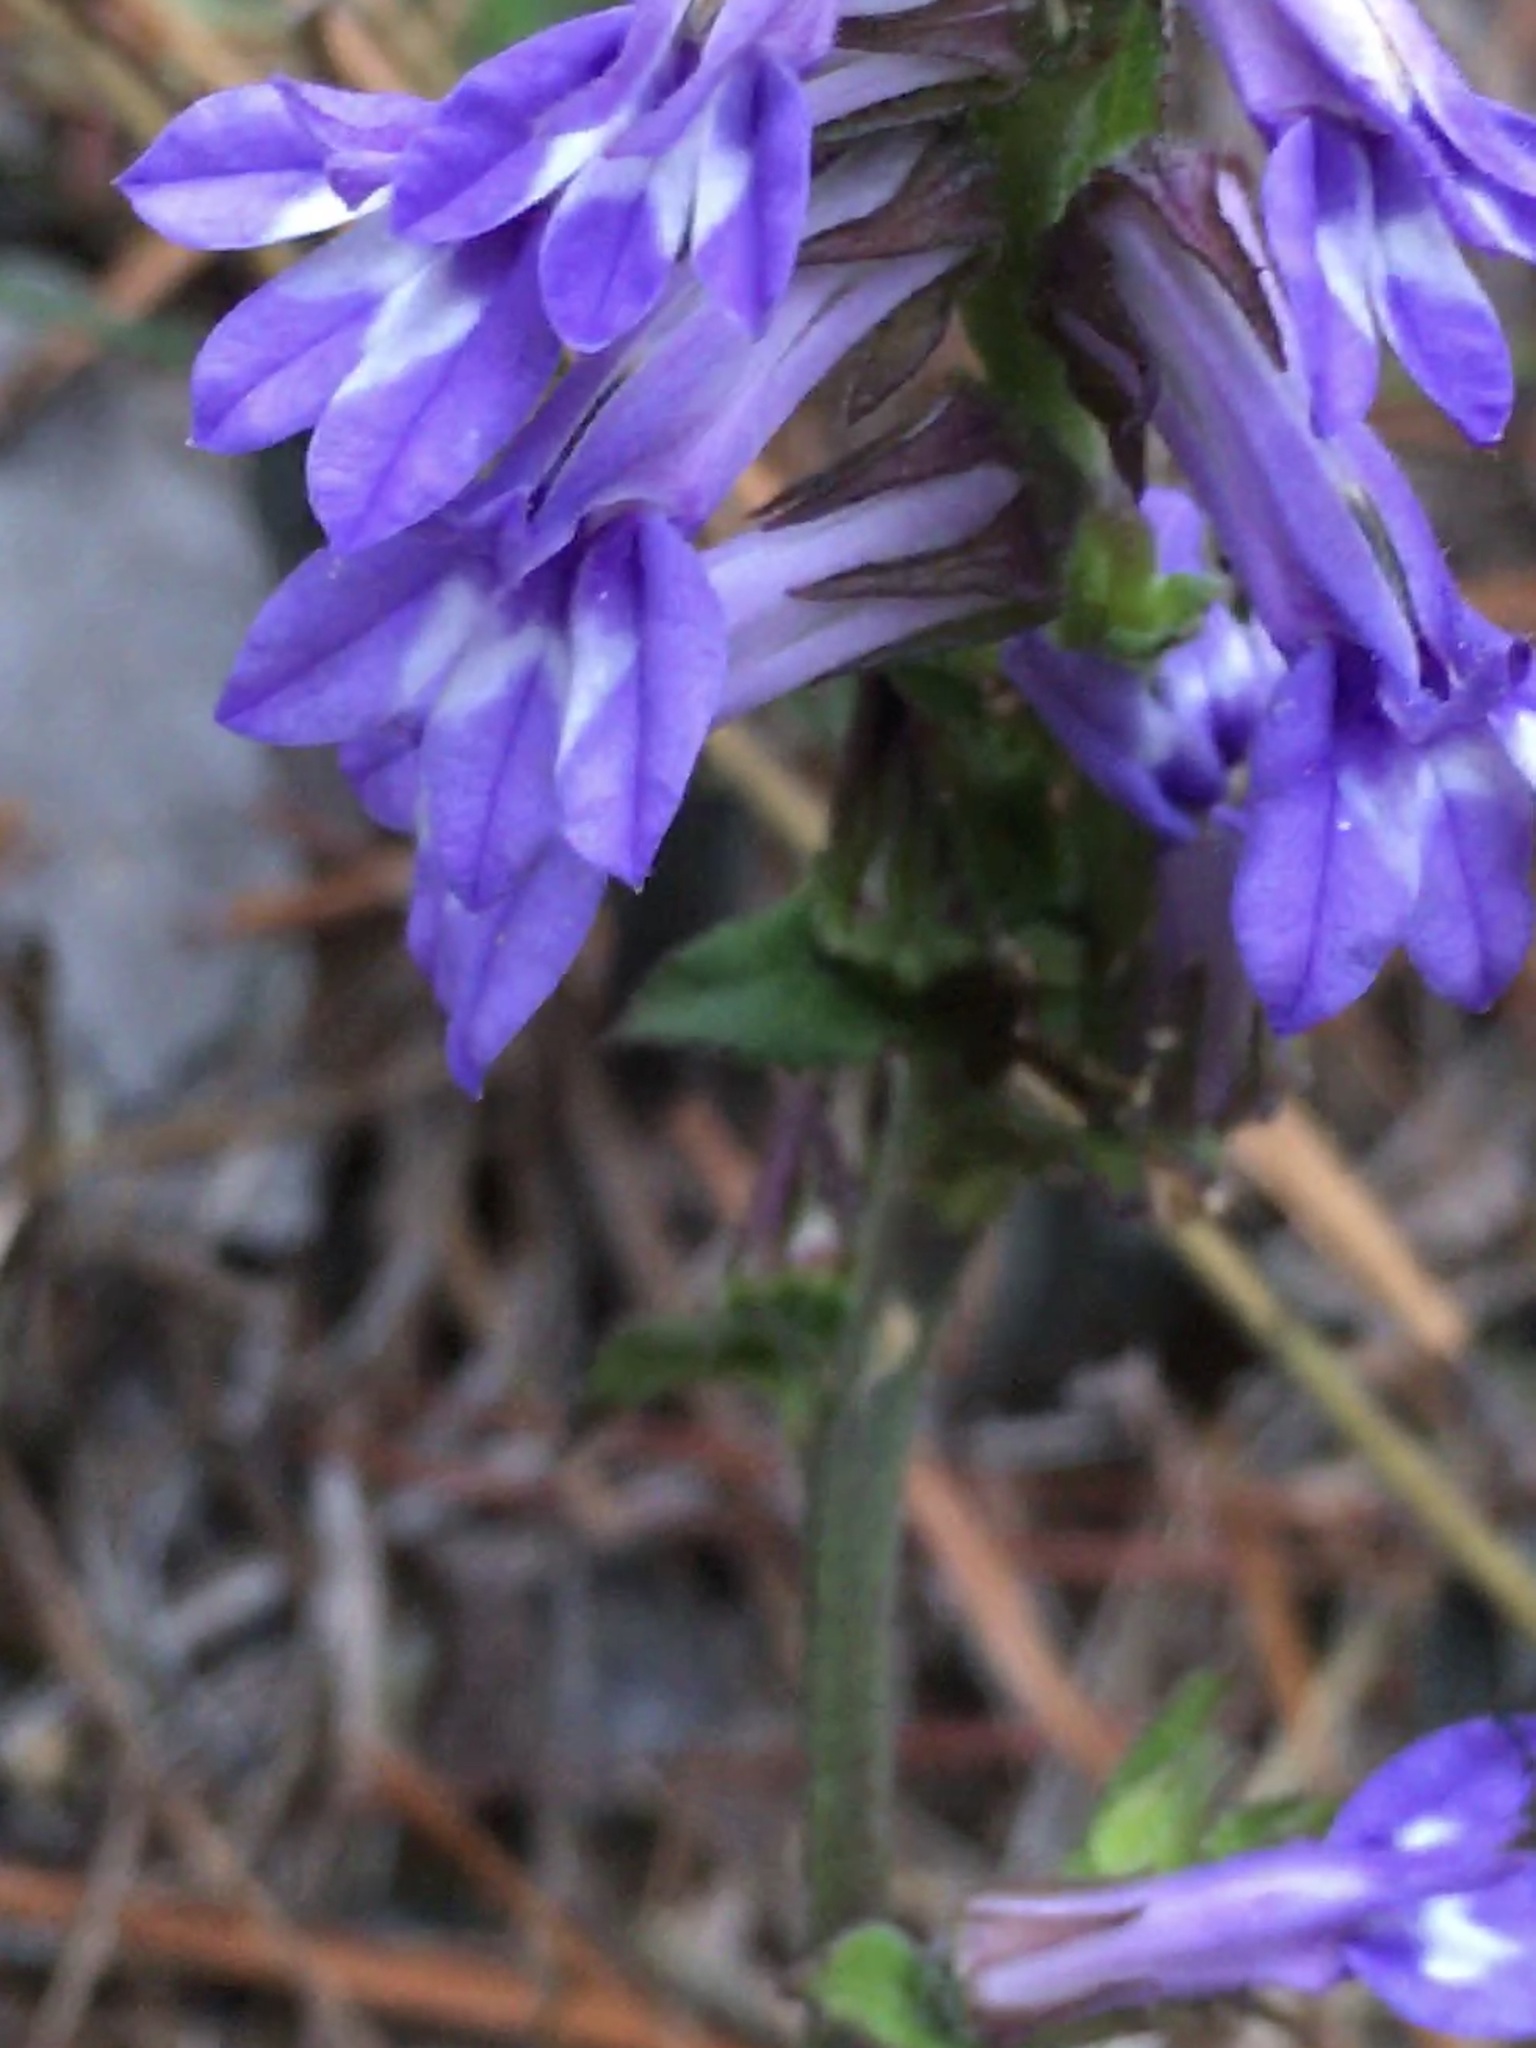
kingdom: Plantae
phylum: Tracheophyta
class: Magnoliopsida
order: Asterales
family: Campanulaceae
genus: Lobelia
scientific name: Lobelia puberula
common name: Purple dewdrop
